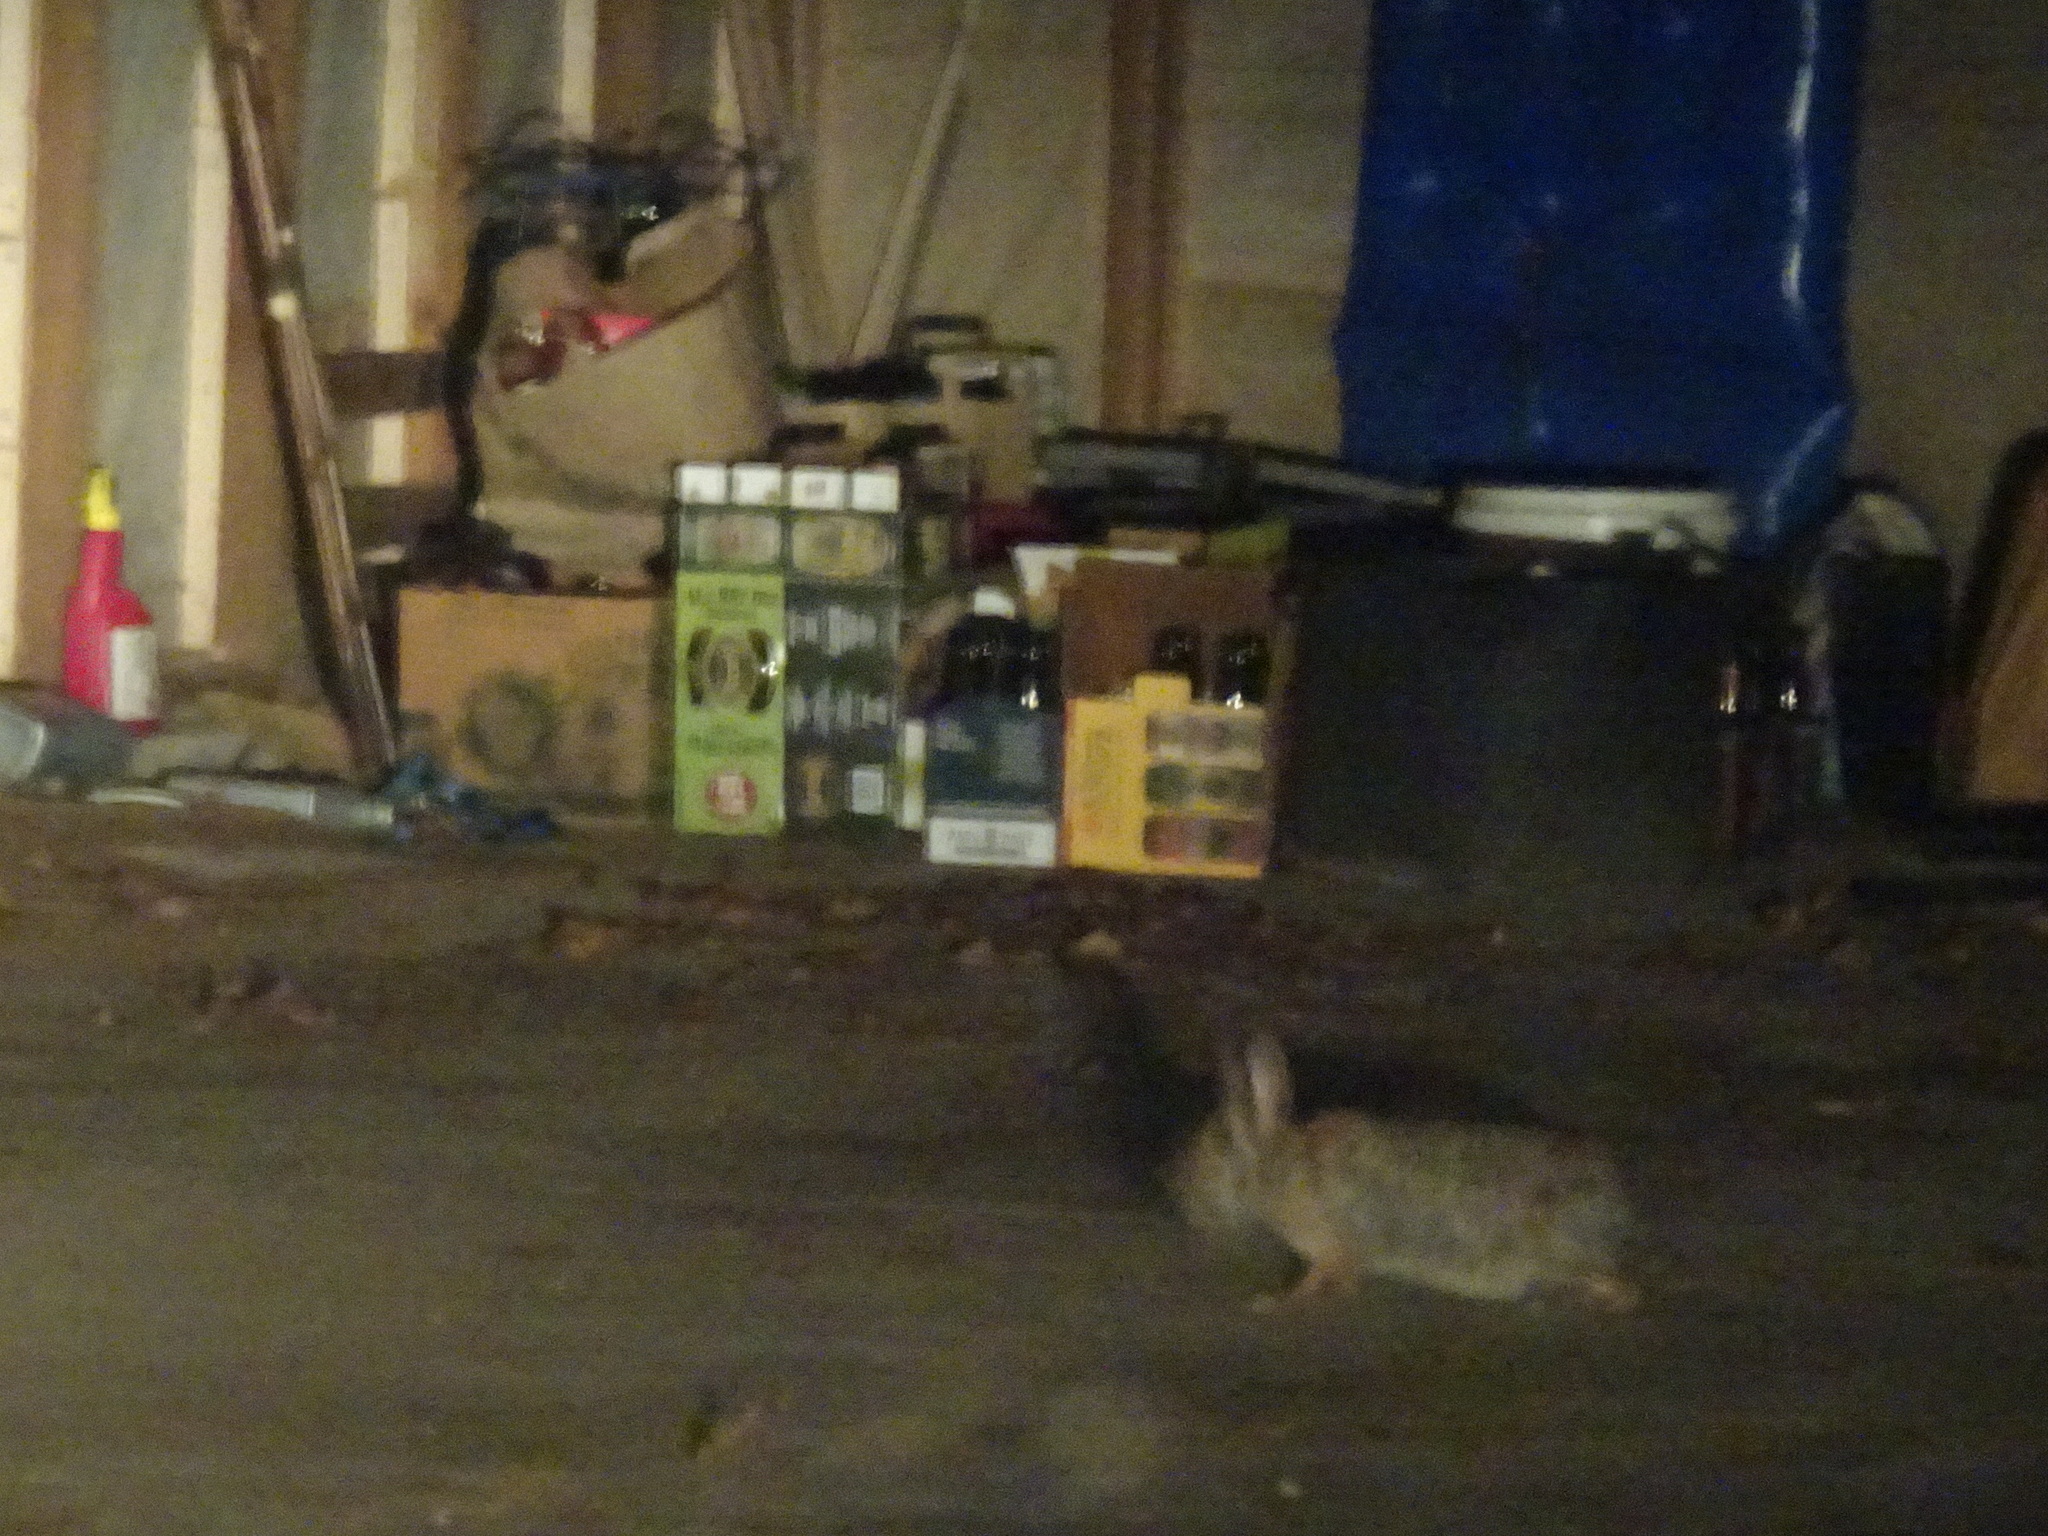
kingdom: Animalia
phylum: Chordata
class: Mammalia
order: Lagomorpha
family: Leporidae
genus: Sylvilagus
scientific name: Sylvilagus floridanus
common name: Eastern cottontail
